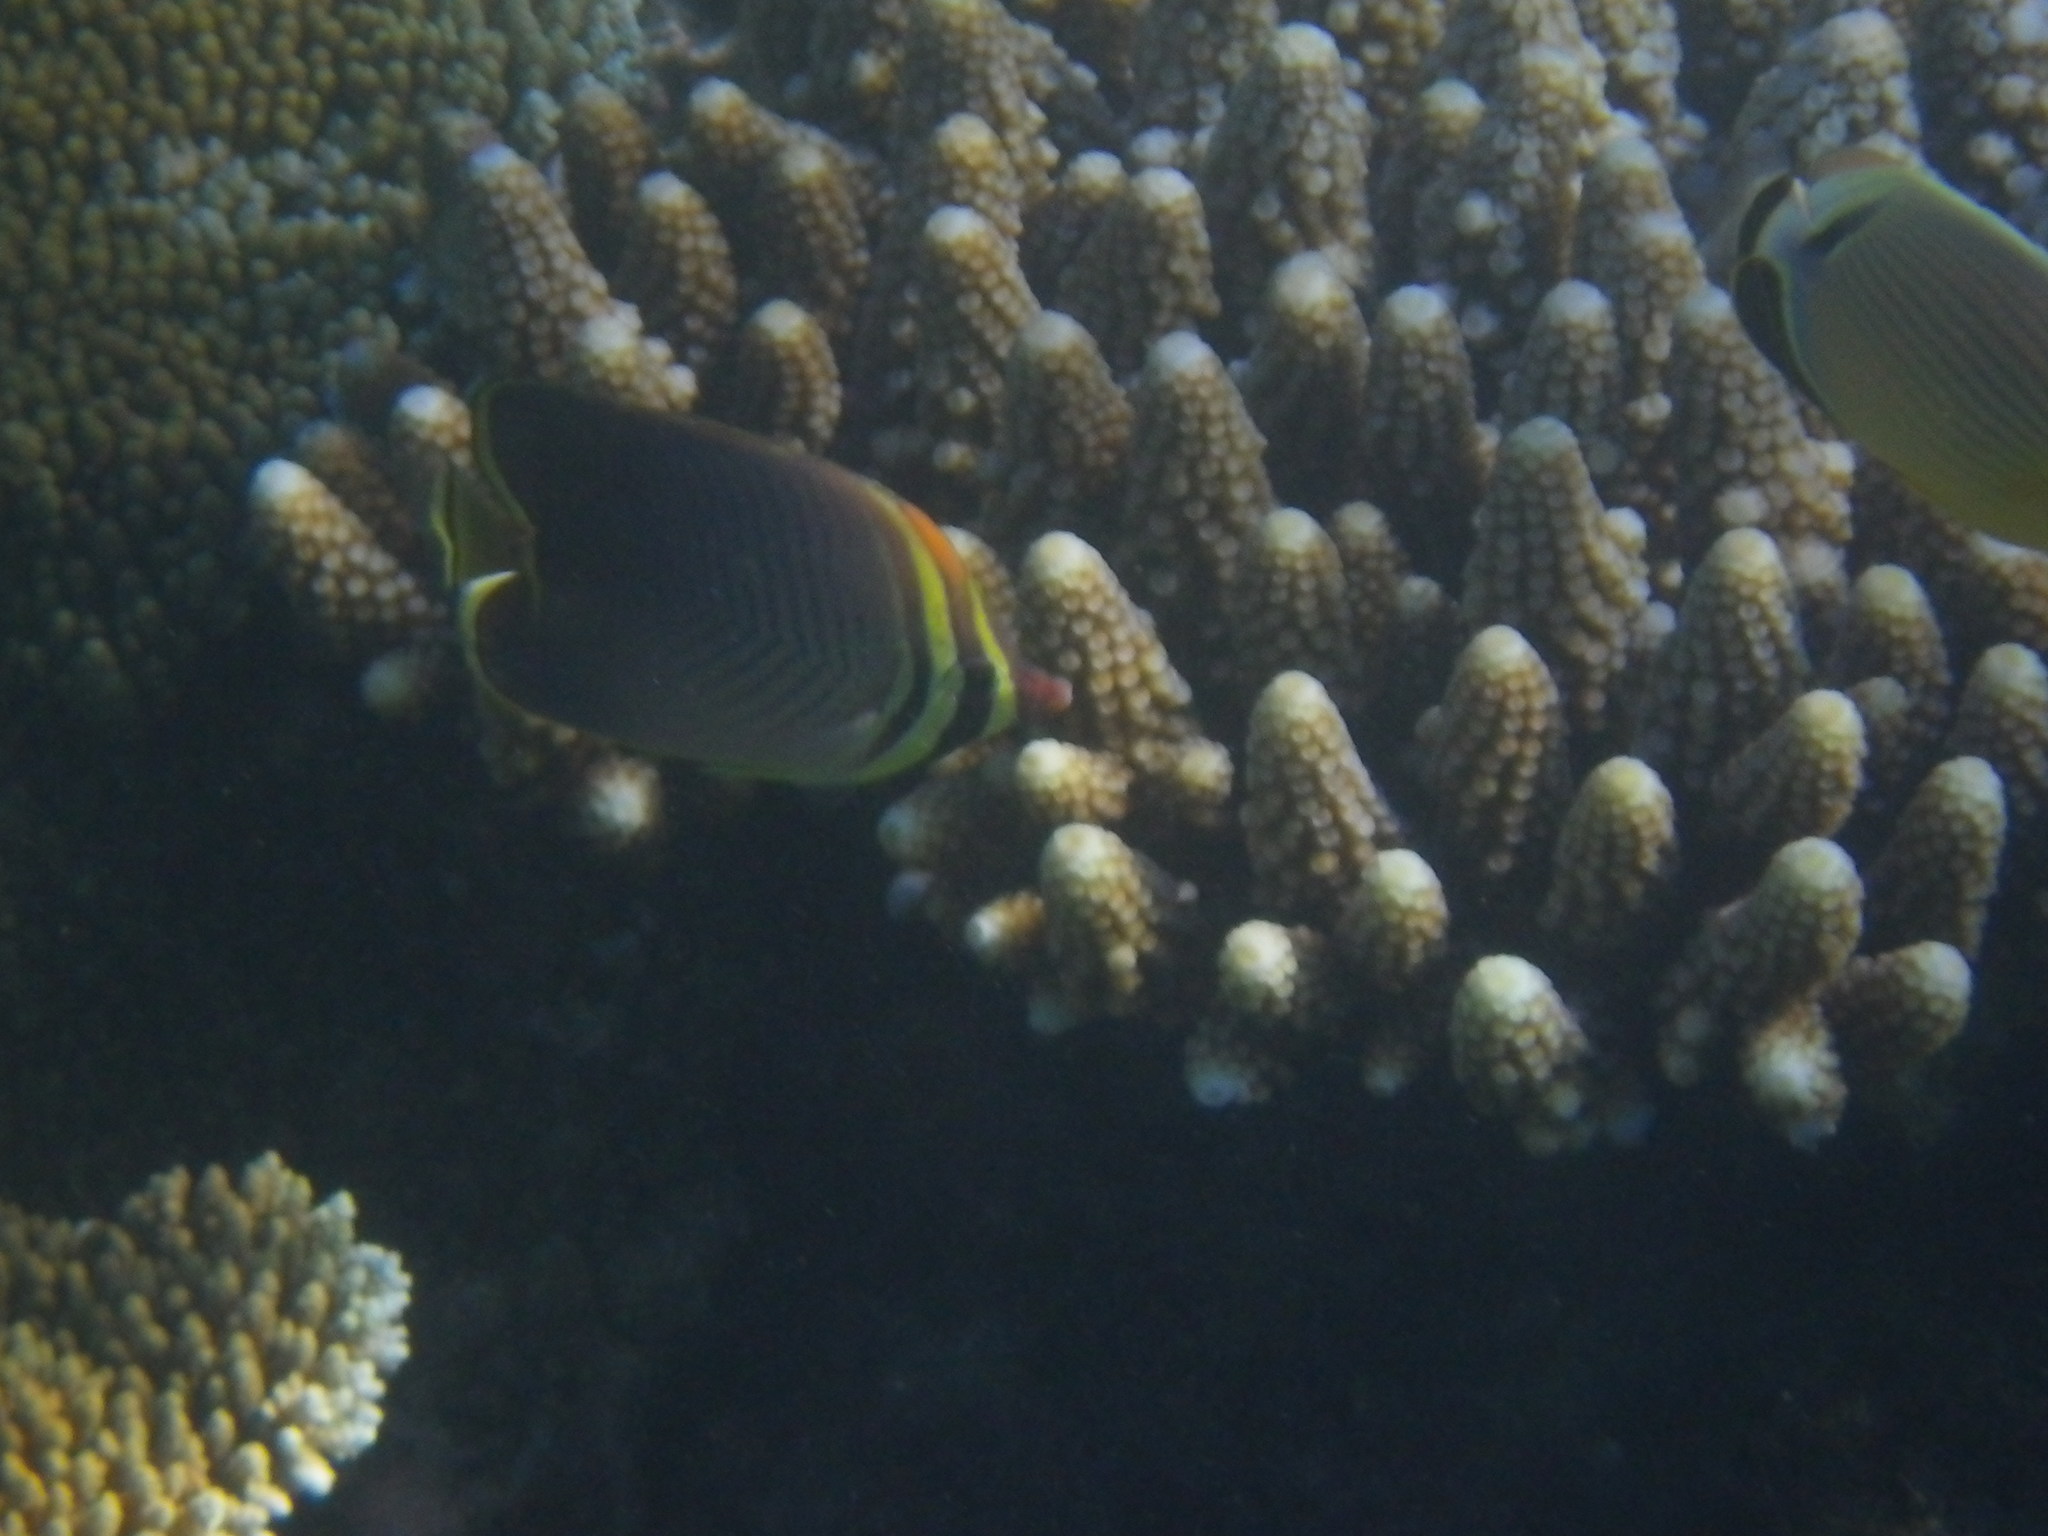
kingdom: Animalia
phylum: Chordata
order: Perciformes
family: Chaetodontidae
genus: Chaetodon
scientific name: Chaetodon baronessa
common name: Triangular butterflyfish
